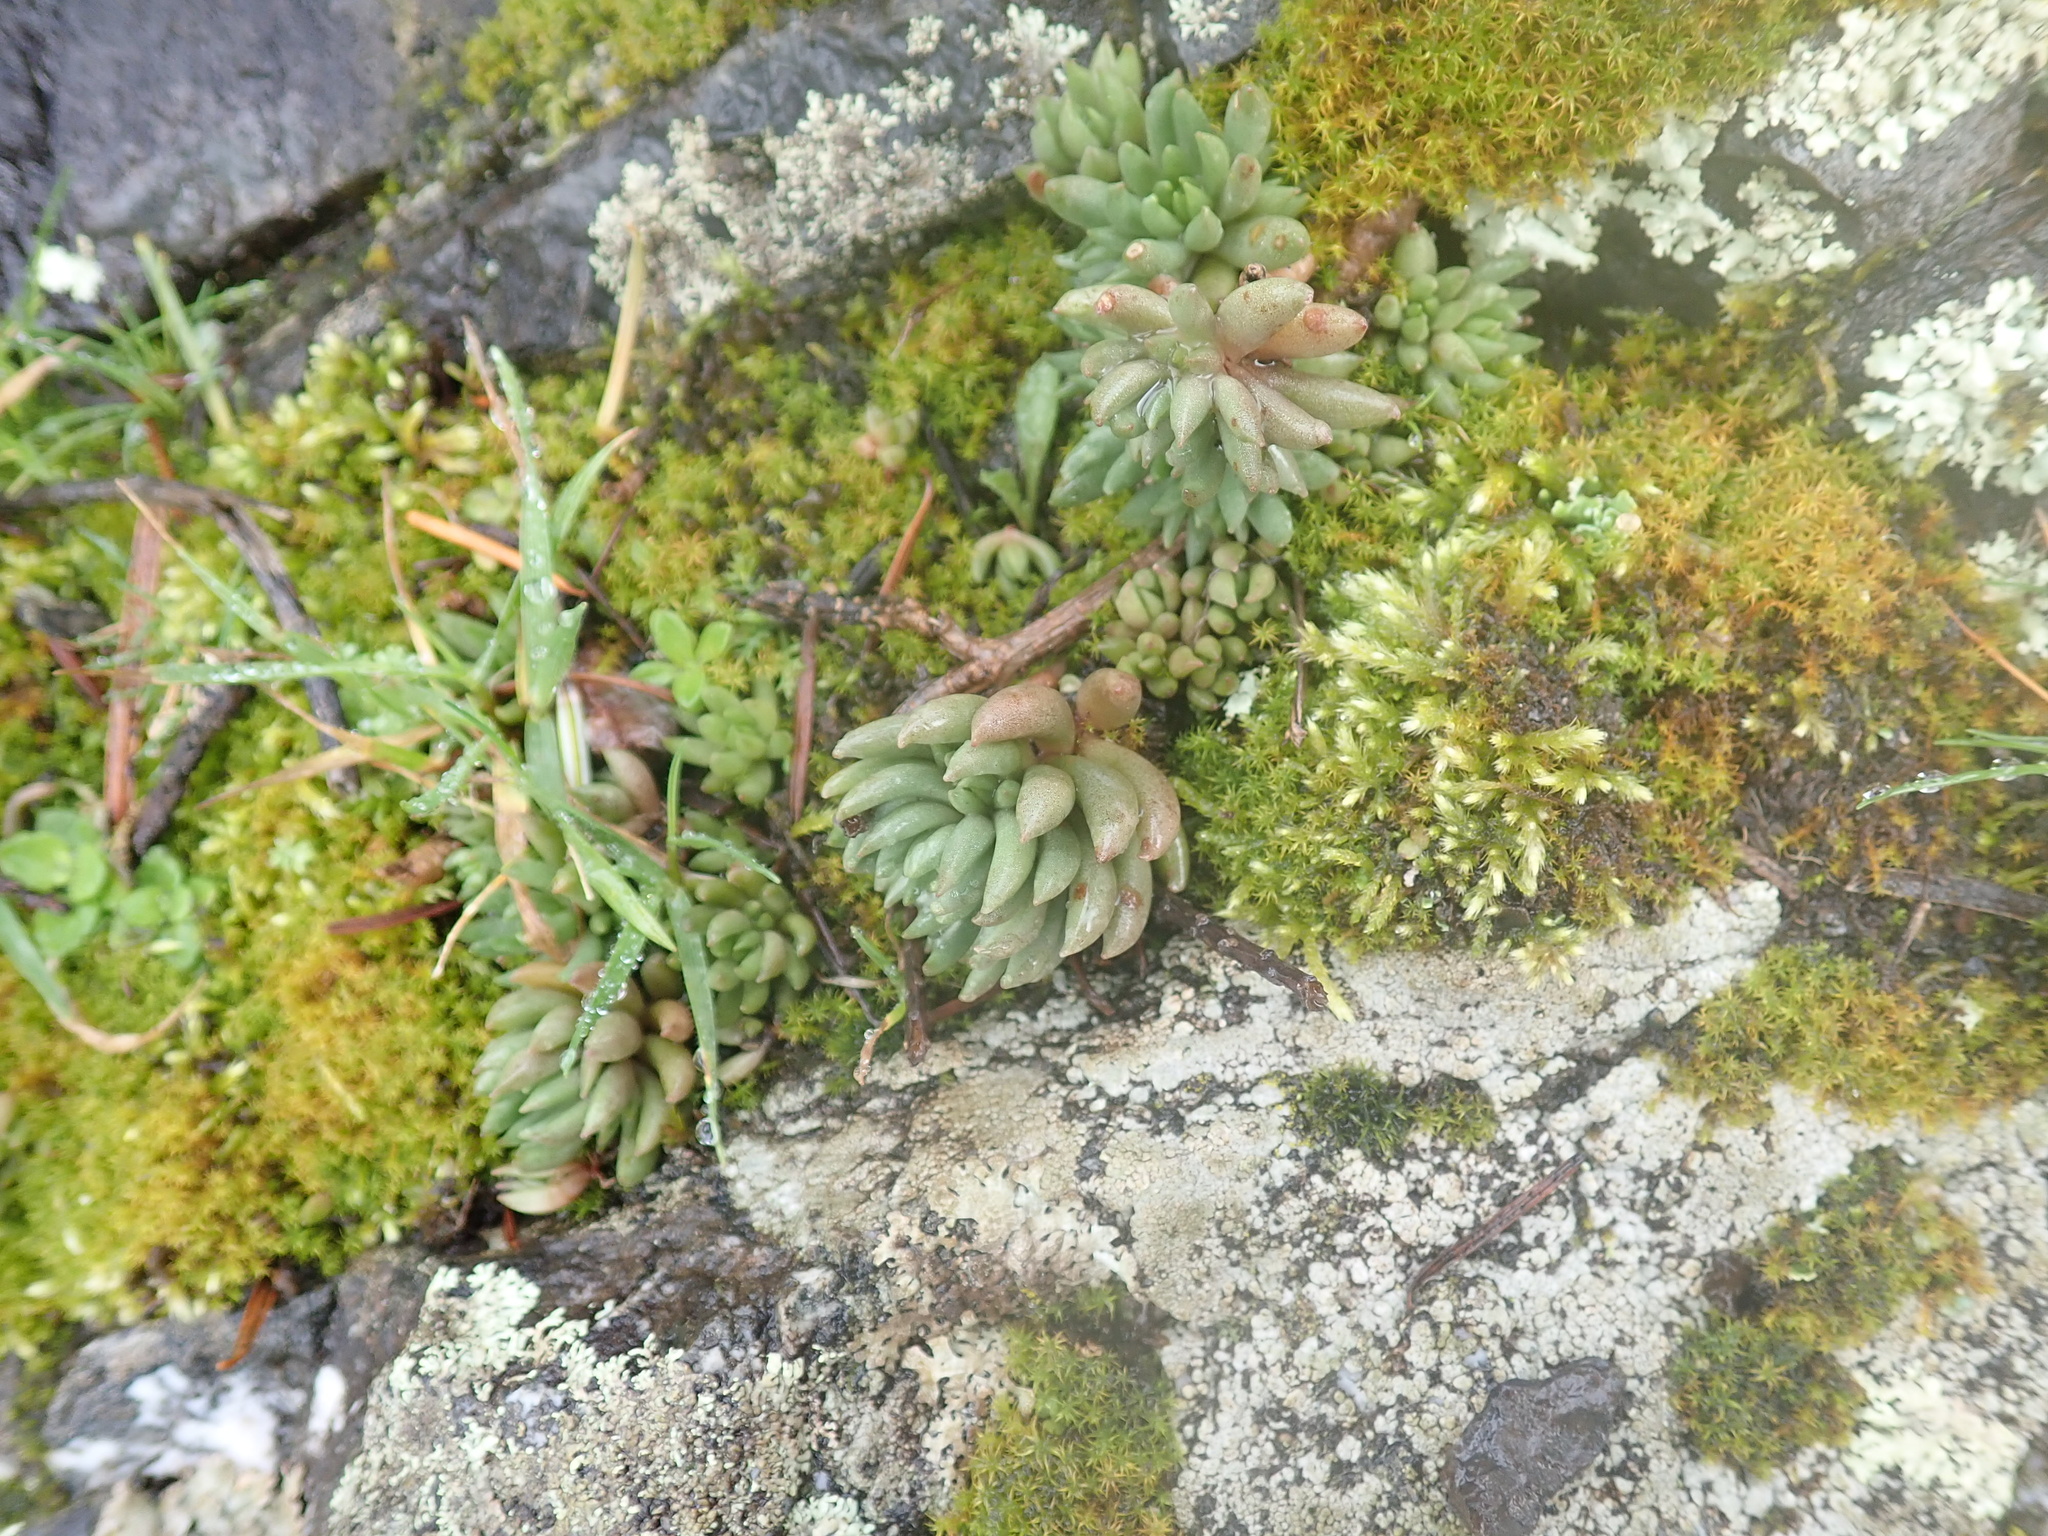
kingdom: Plantae
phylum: Tracheophyta
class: Magnoliopsida
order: Saxifragales
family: Crassulaceae
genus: Sedum
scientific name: Sedum lanceolatum
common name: Common stonecrop
